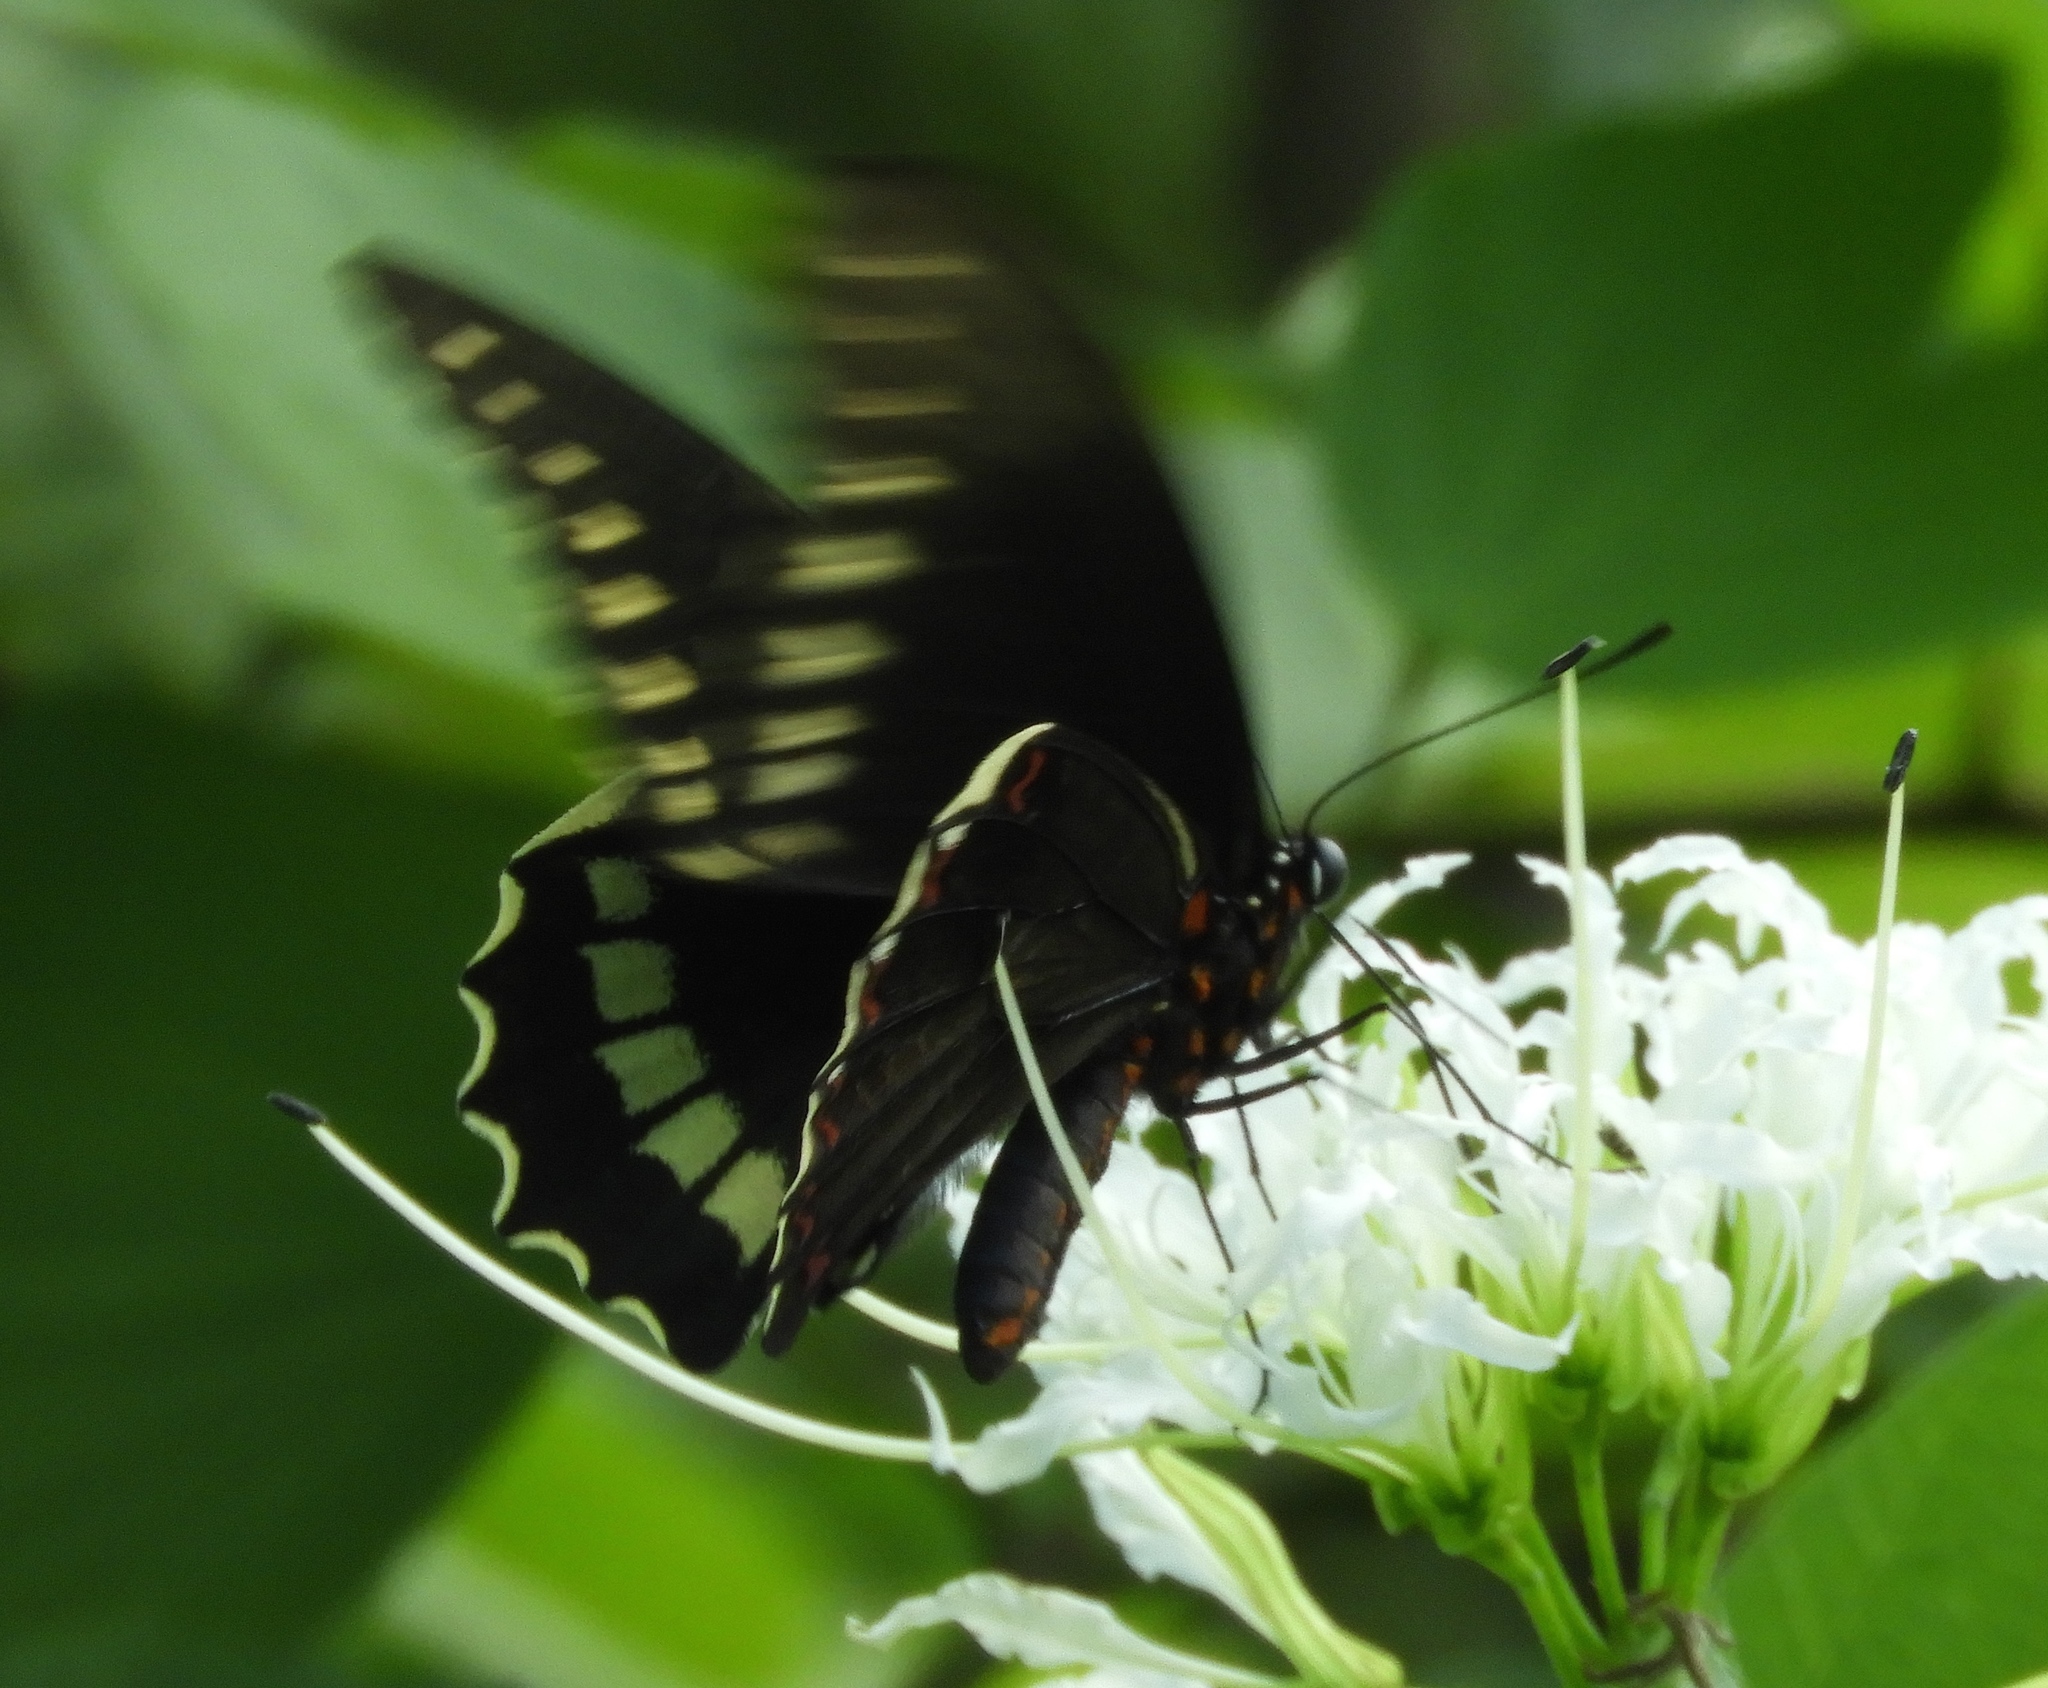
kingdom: Animalia
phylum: Arthropoda
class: Insecta
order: Lepidoptera
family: Papilionidae
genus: Battus
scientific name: Battus polydamas
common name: Polydamas swallowtail
